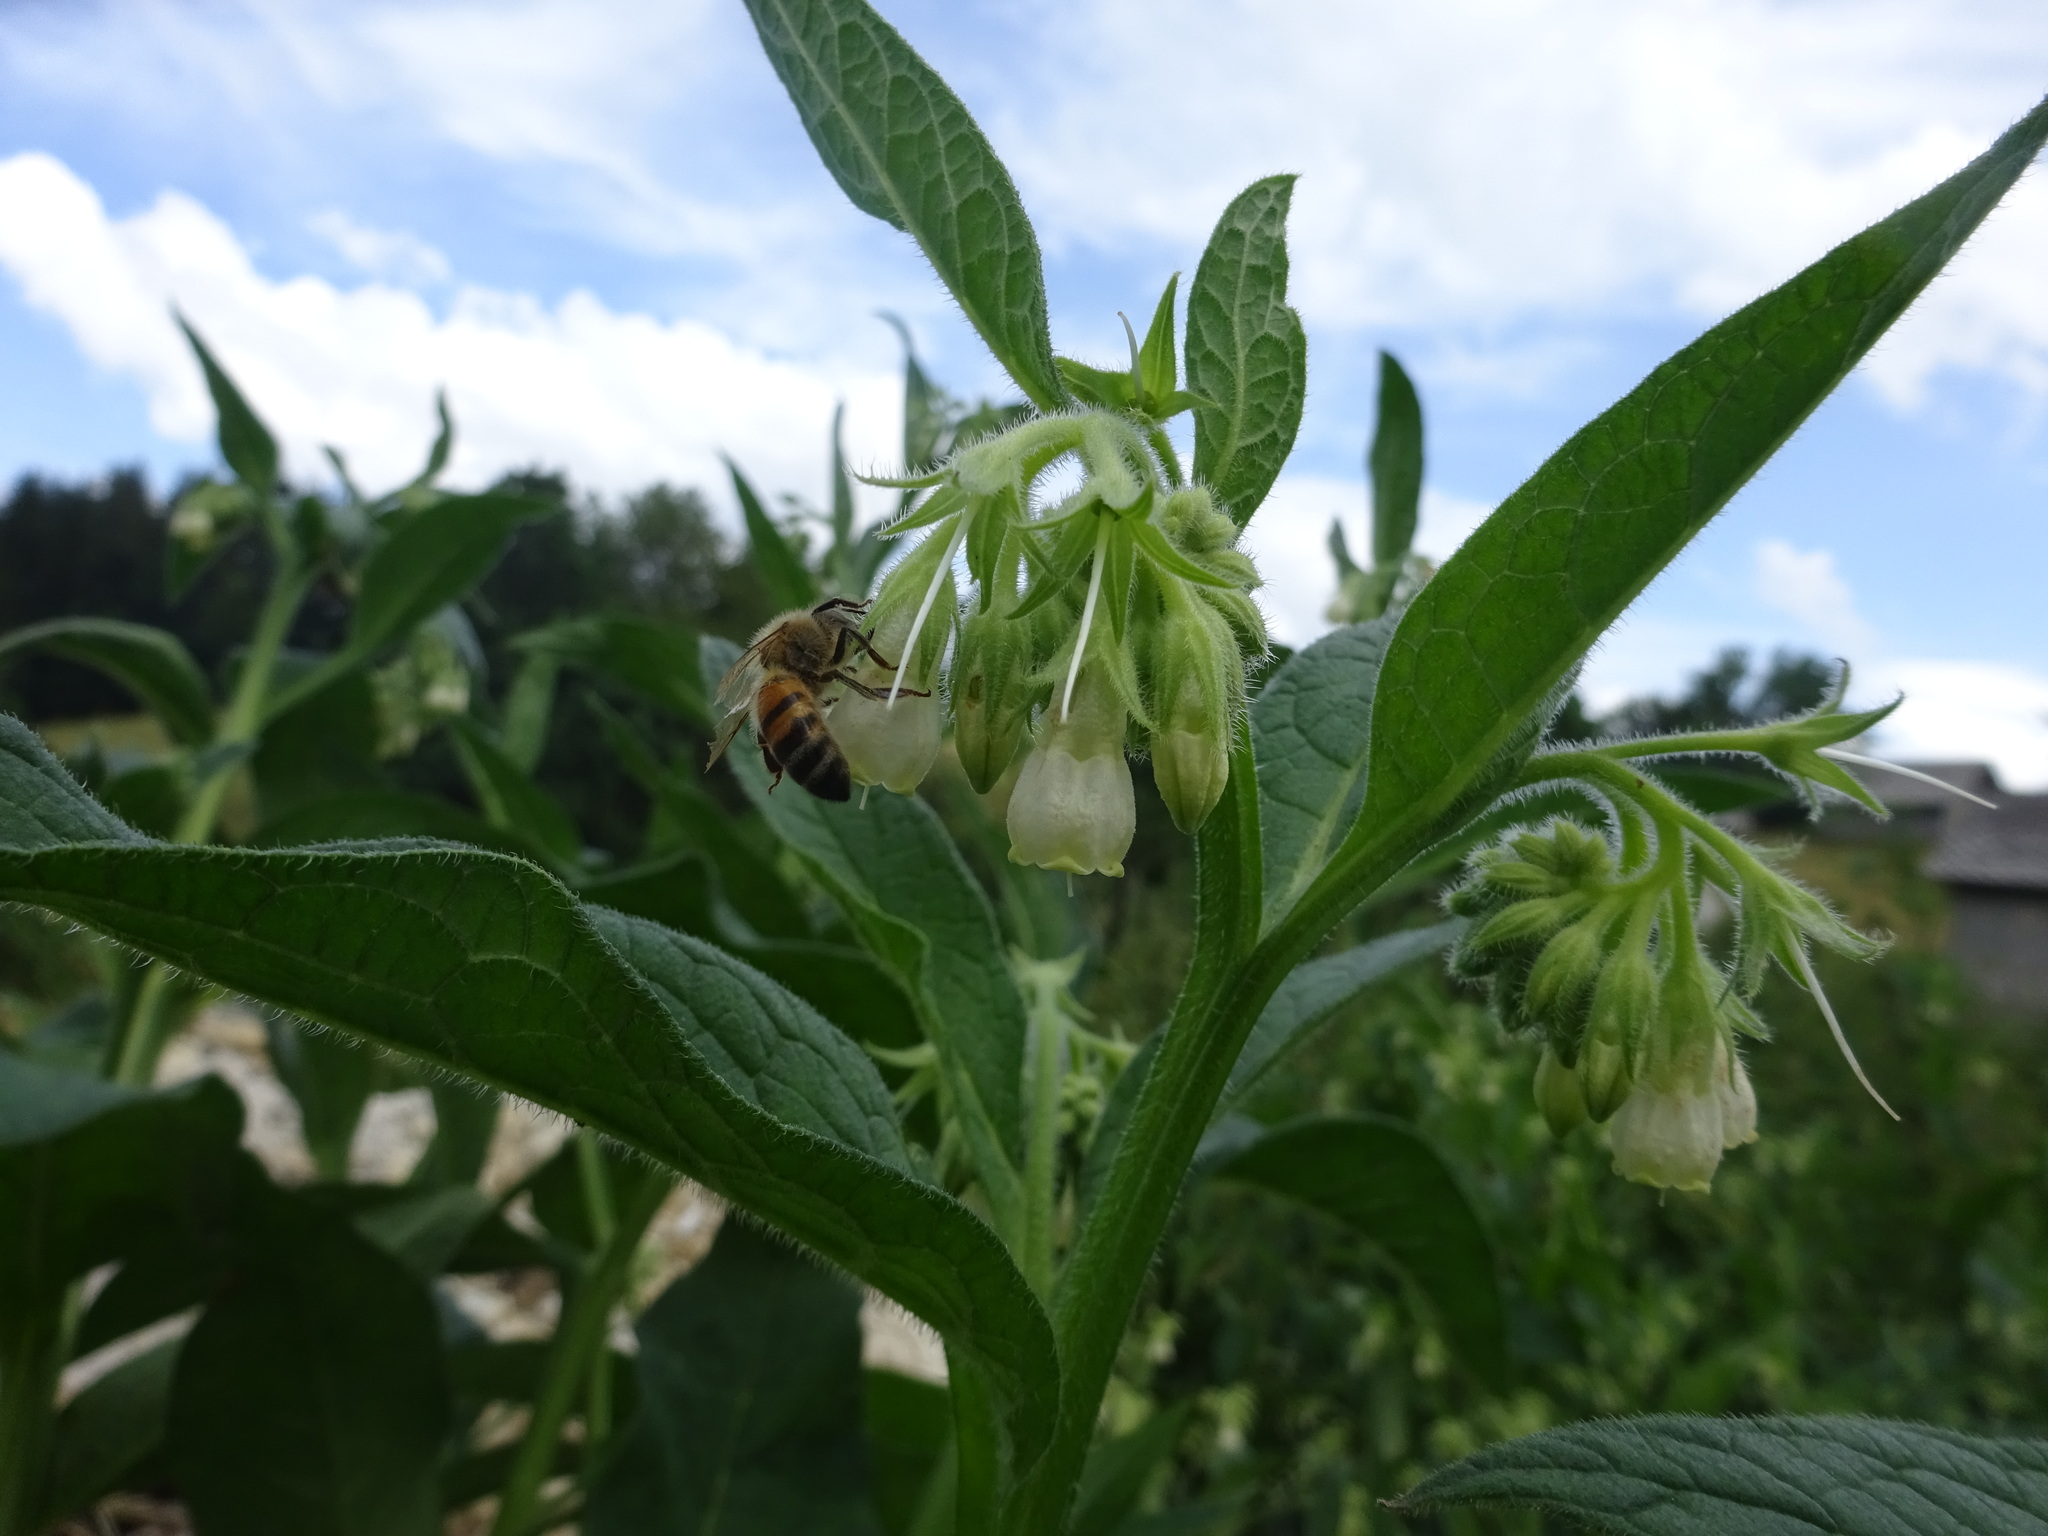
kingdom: Plantae
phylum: Tracheophyta
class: Magnoliopsida
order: Boraginales
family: Boraginaceae
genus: Symphytum
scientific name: Symphytum officinale
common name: Common comfrey
